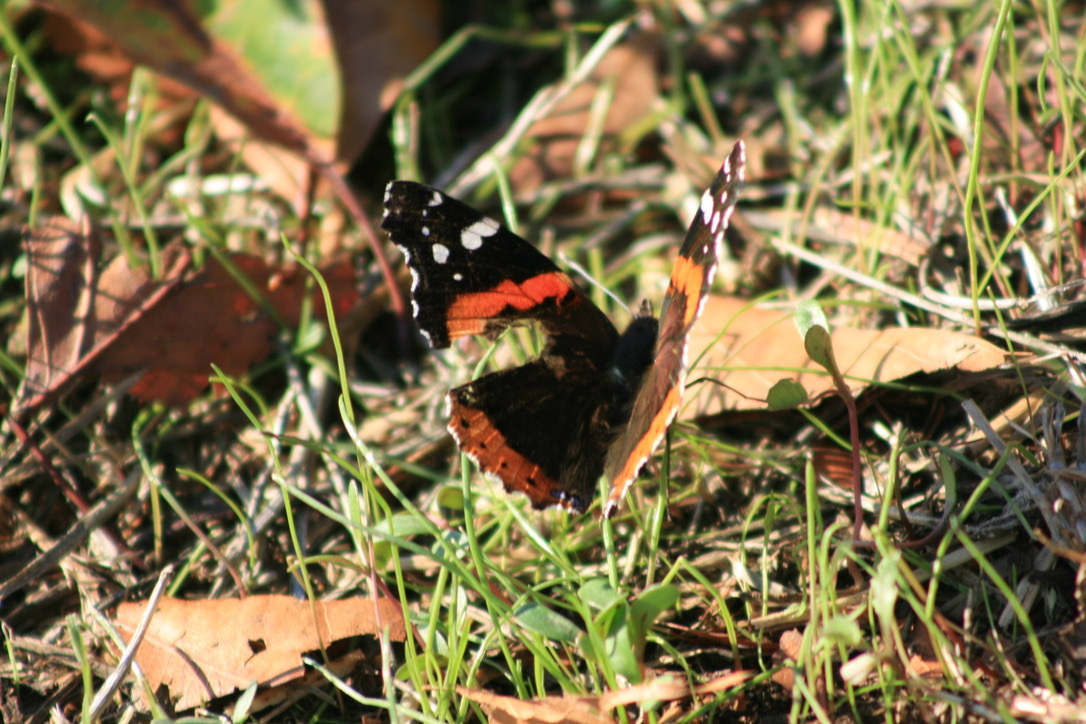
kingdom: Animalia
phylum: Arthropoda
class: Insecta
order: Lepidoptera
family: Nymphalidae
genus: Vanessa
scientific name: Vanessa atalanta
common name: Red admiral
